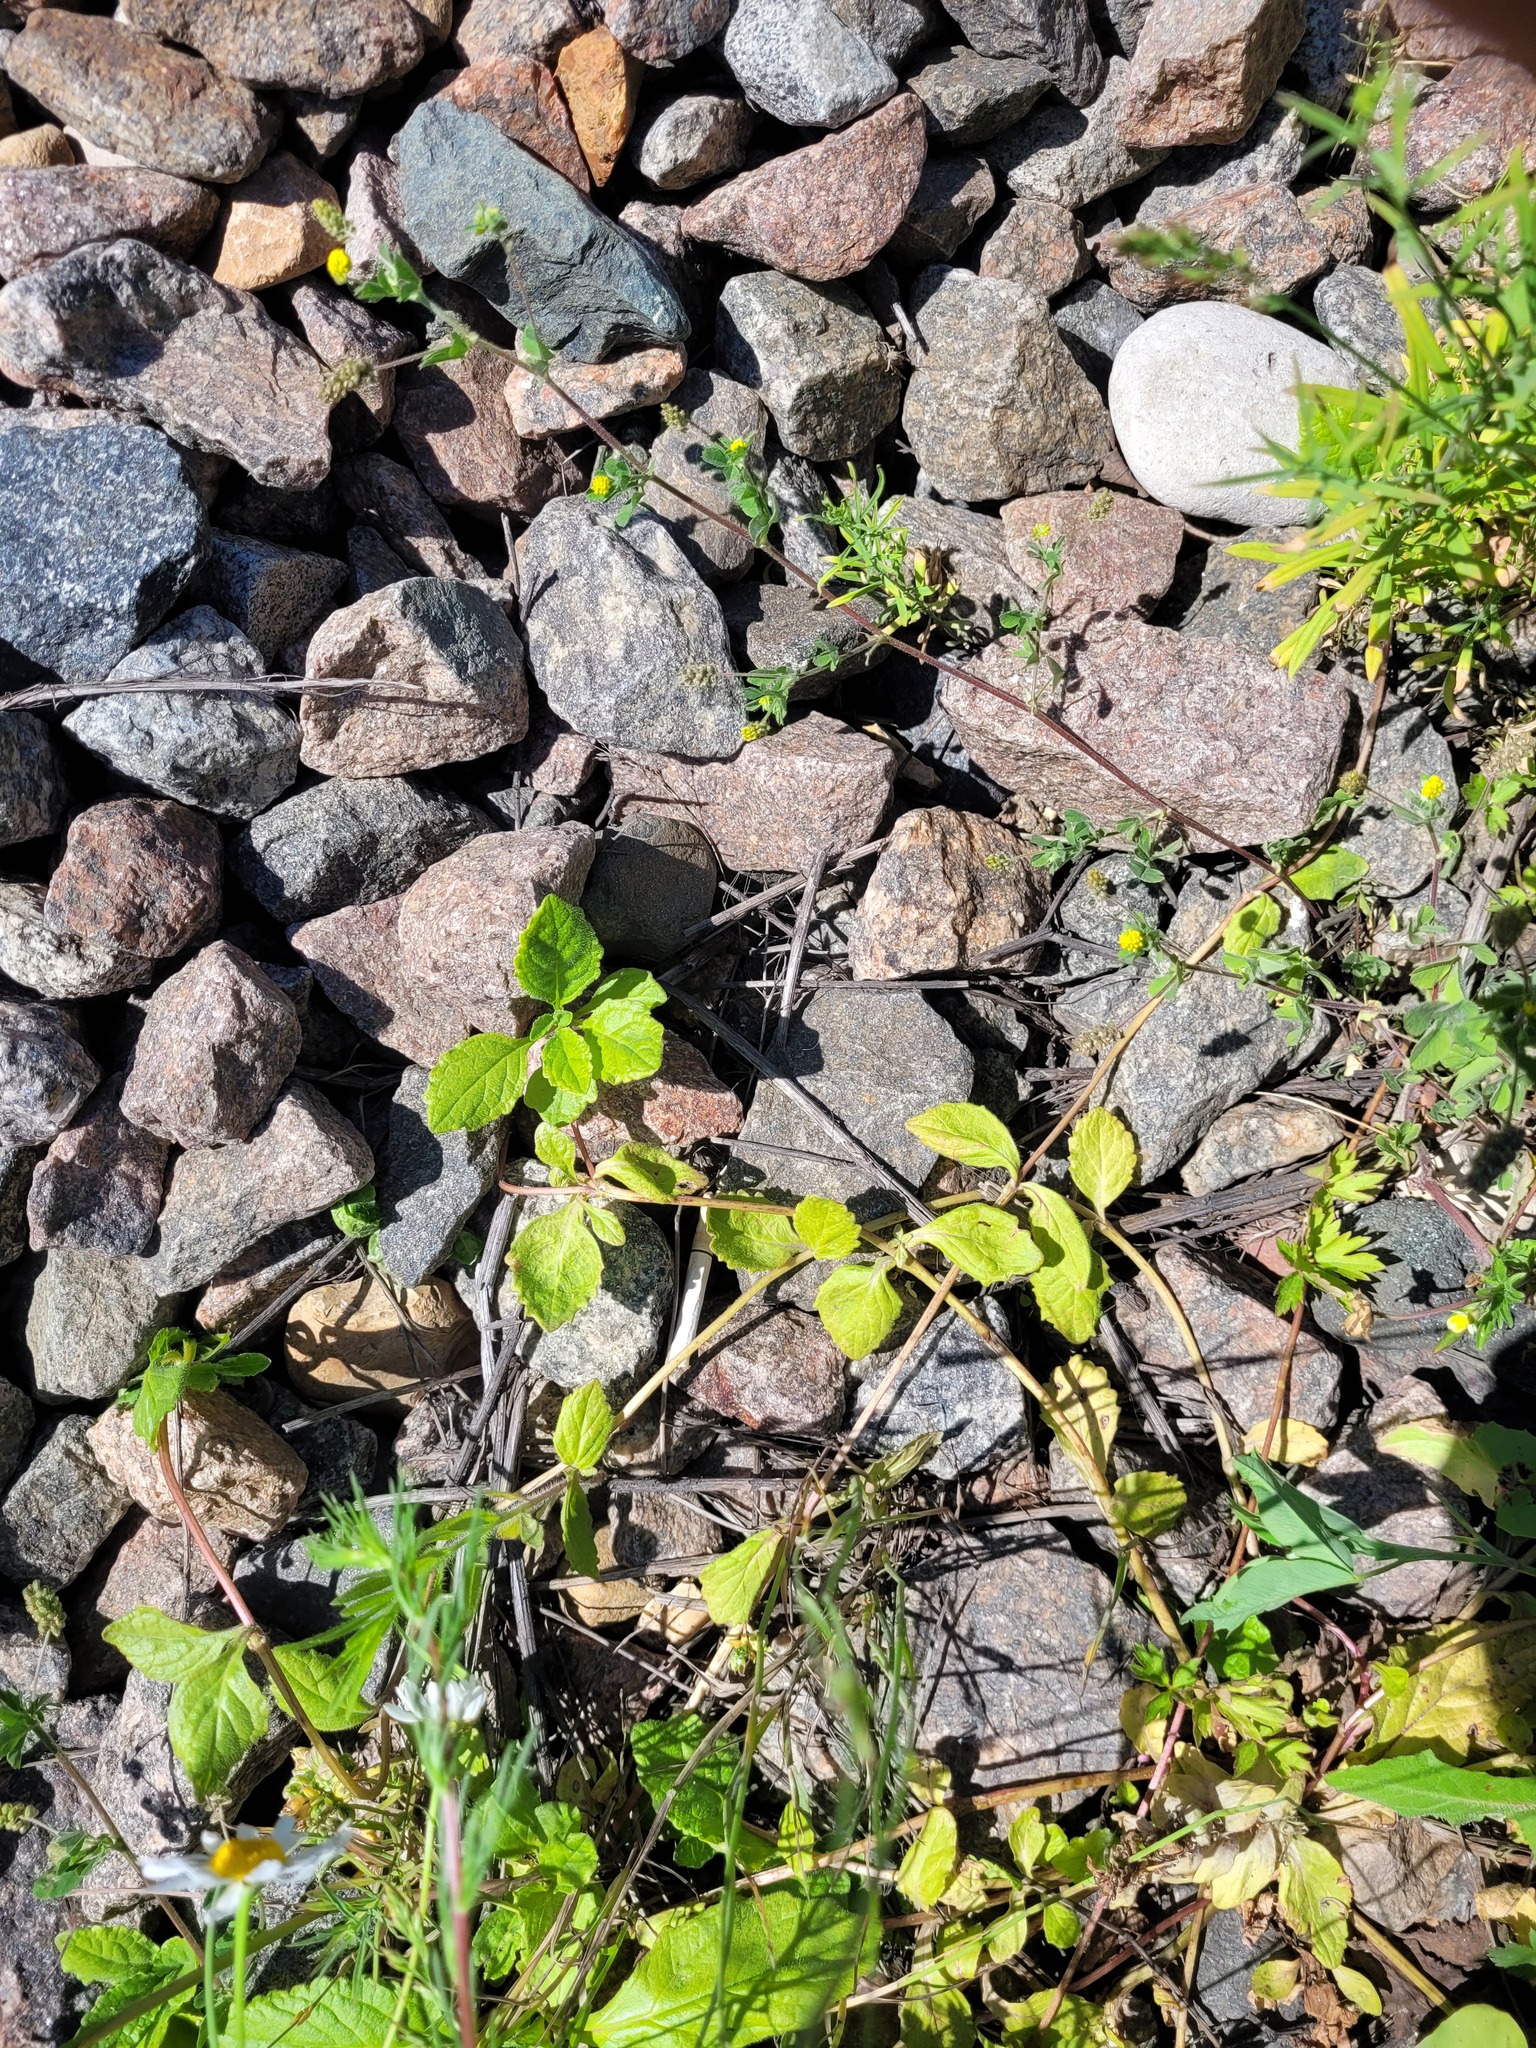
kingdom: Plantae
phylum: Tracheophyta
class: Magnoliopsida
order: Lamiales
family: Lamiaceae
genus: Ajuga
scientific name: Ajuga reptans
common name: Bugle
